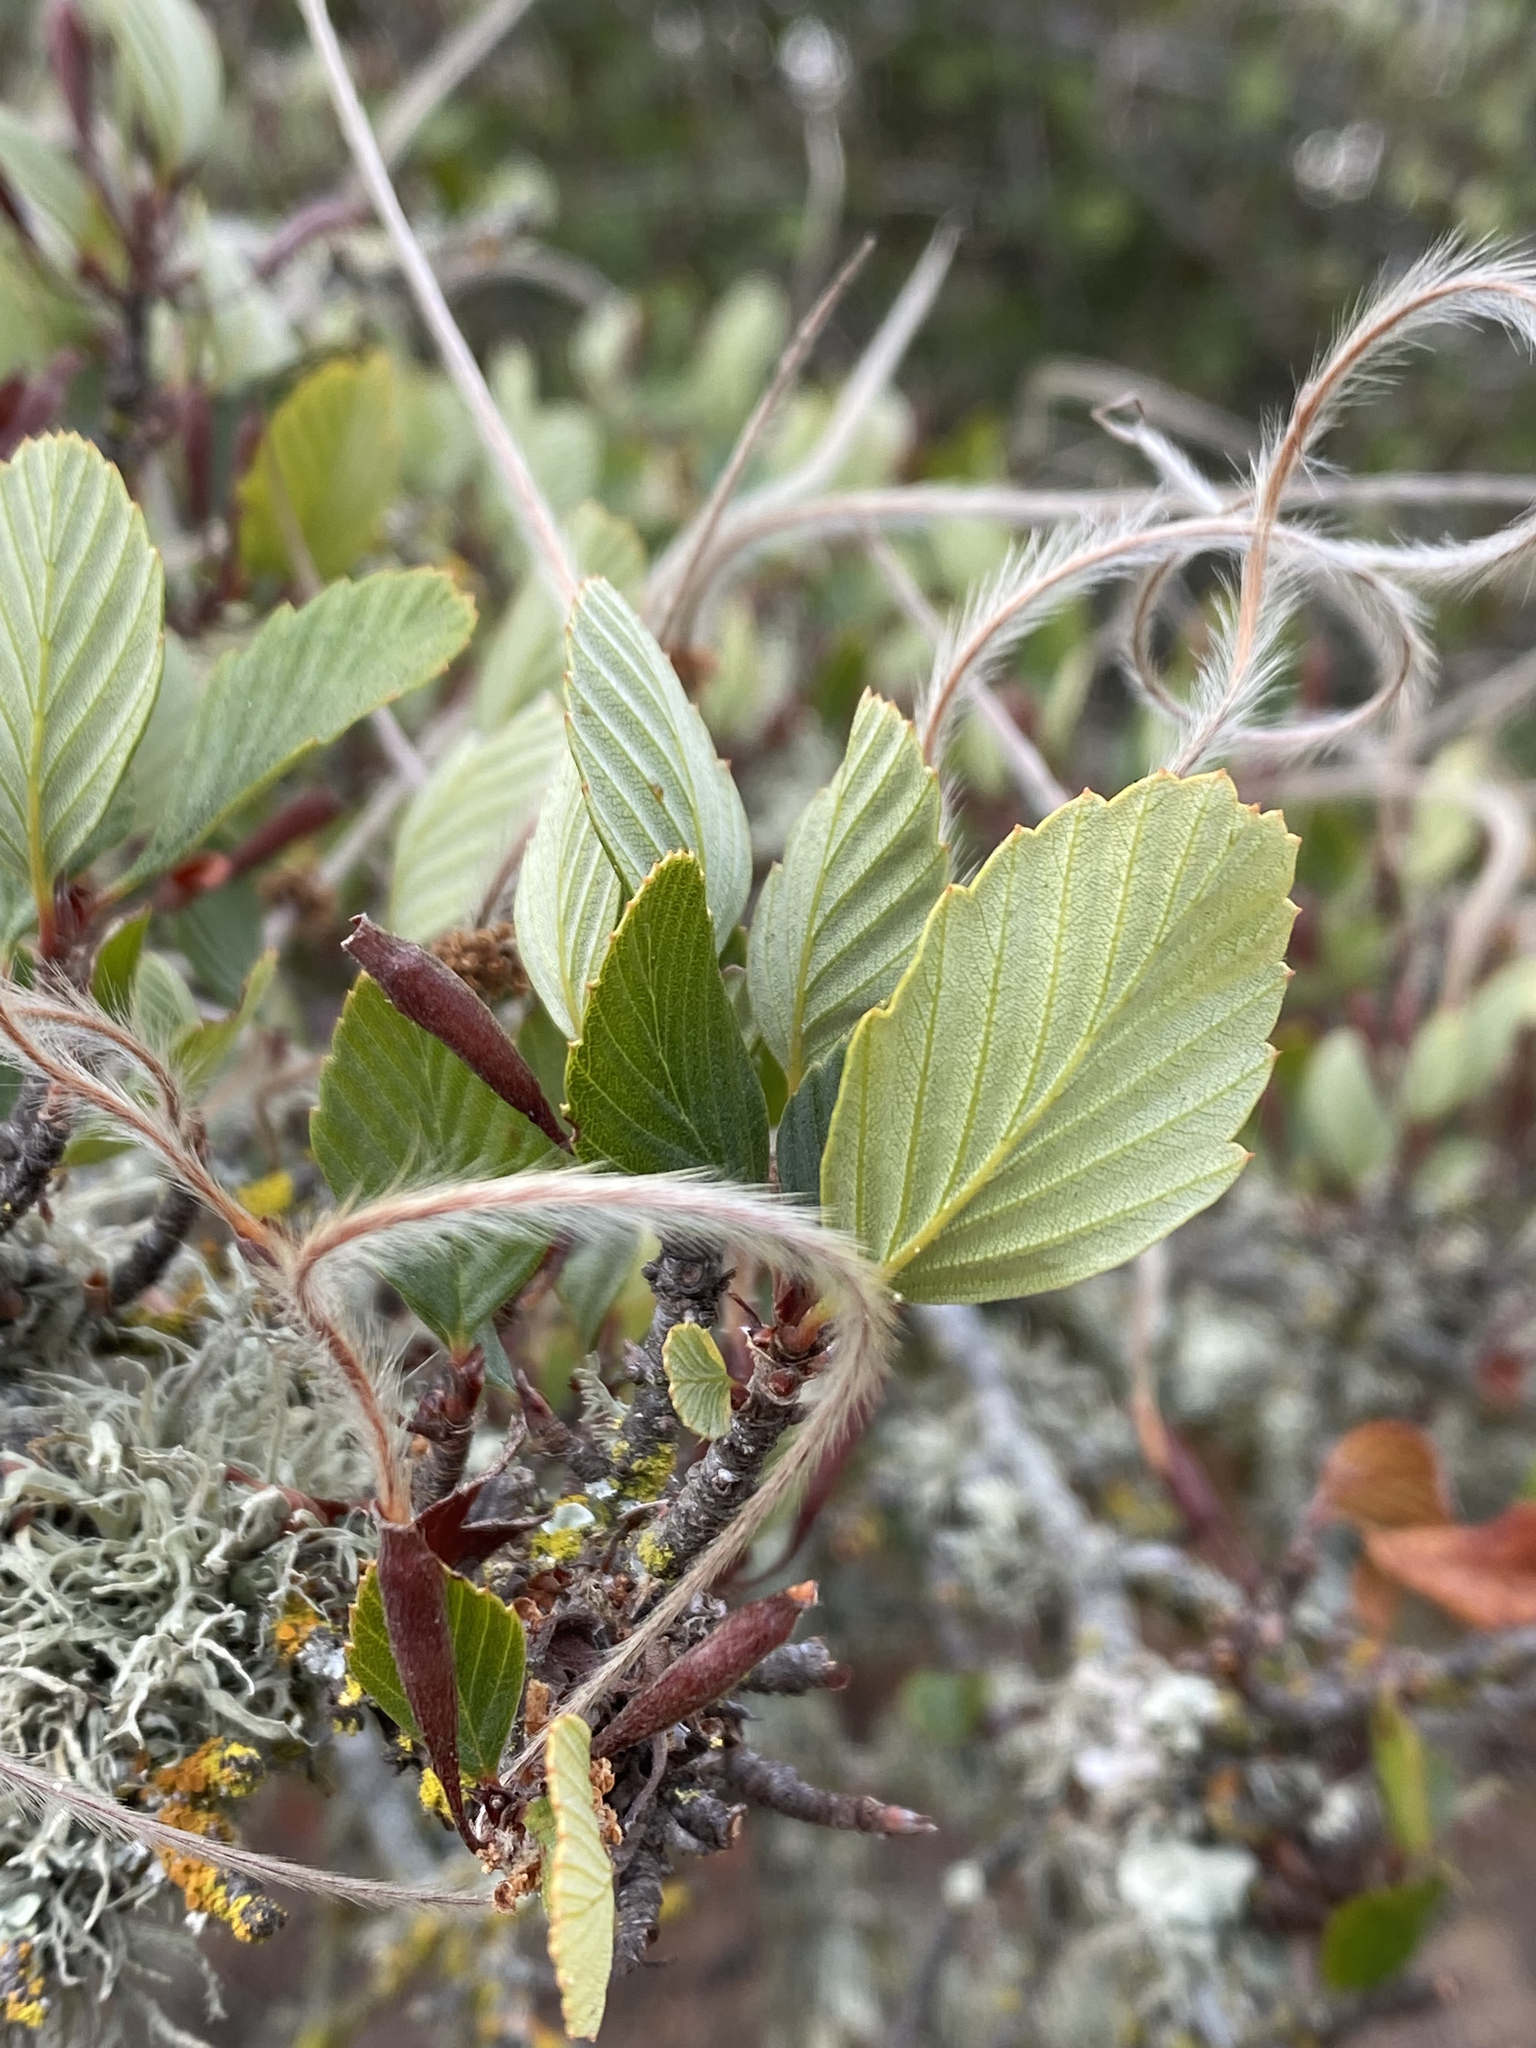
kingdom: Plantae
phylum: Tracheophyta
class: Magnoliopsida
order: Rosales
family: Rosaceae
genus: Cercocarpus
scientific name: Cercocarpus betuloides
